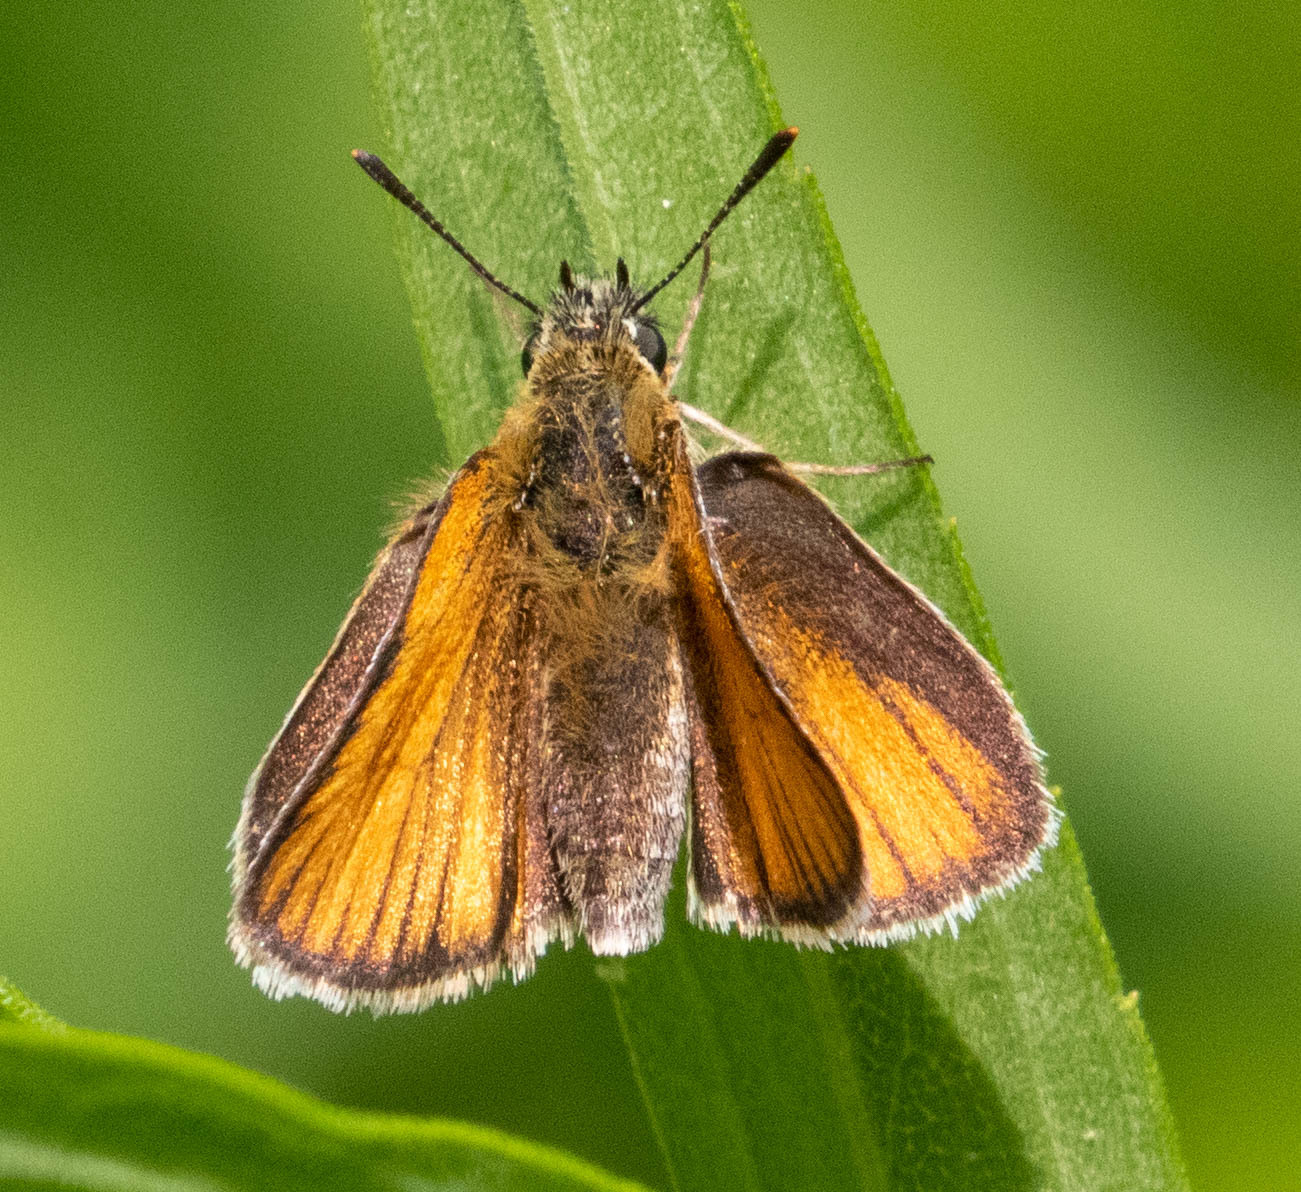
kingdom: Animalia
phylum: Arthropoda
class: Insecta
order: Lepidoptera
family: Hesperiidae
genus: Thymelicus
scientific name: Thymelicus lineola
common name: Essex skipper
